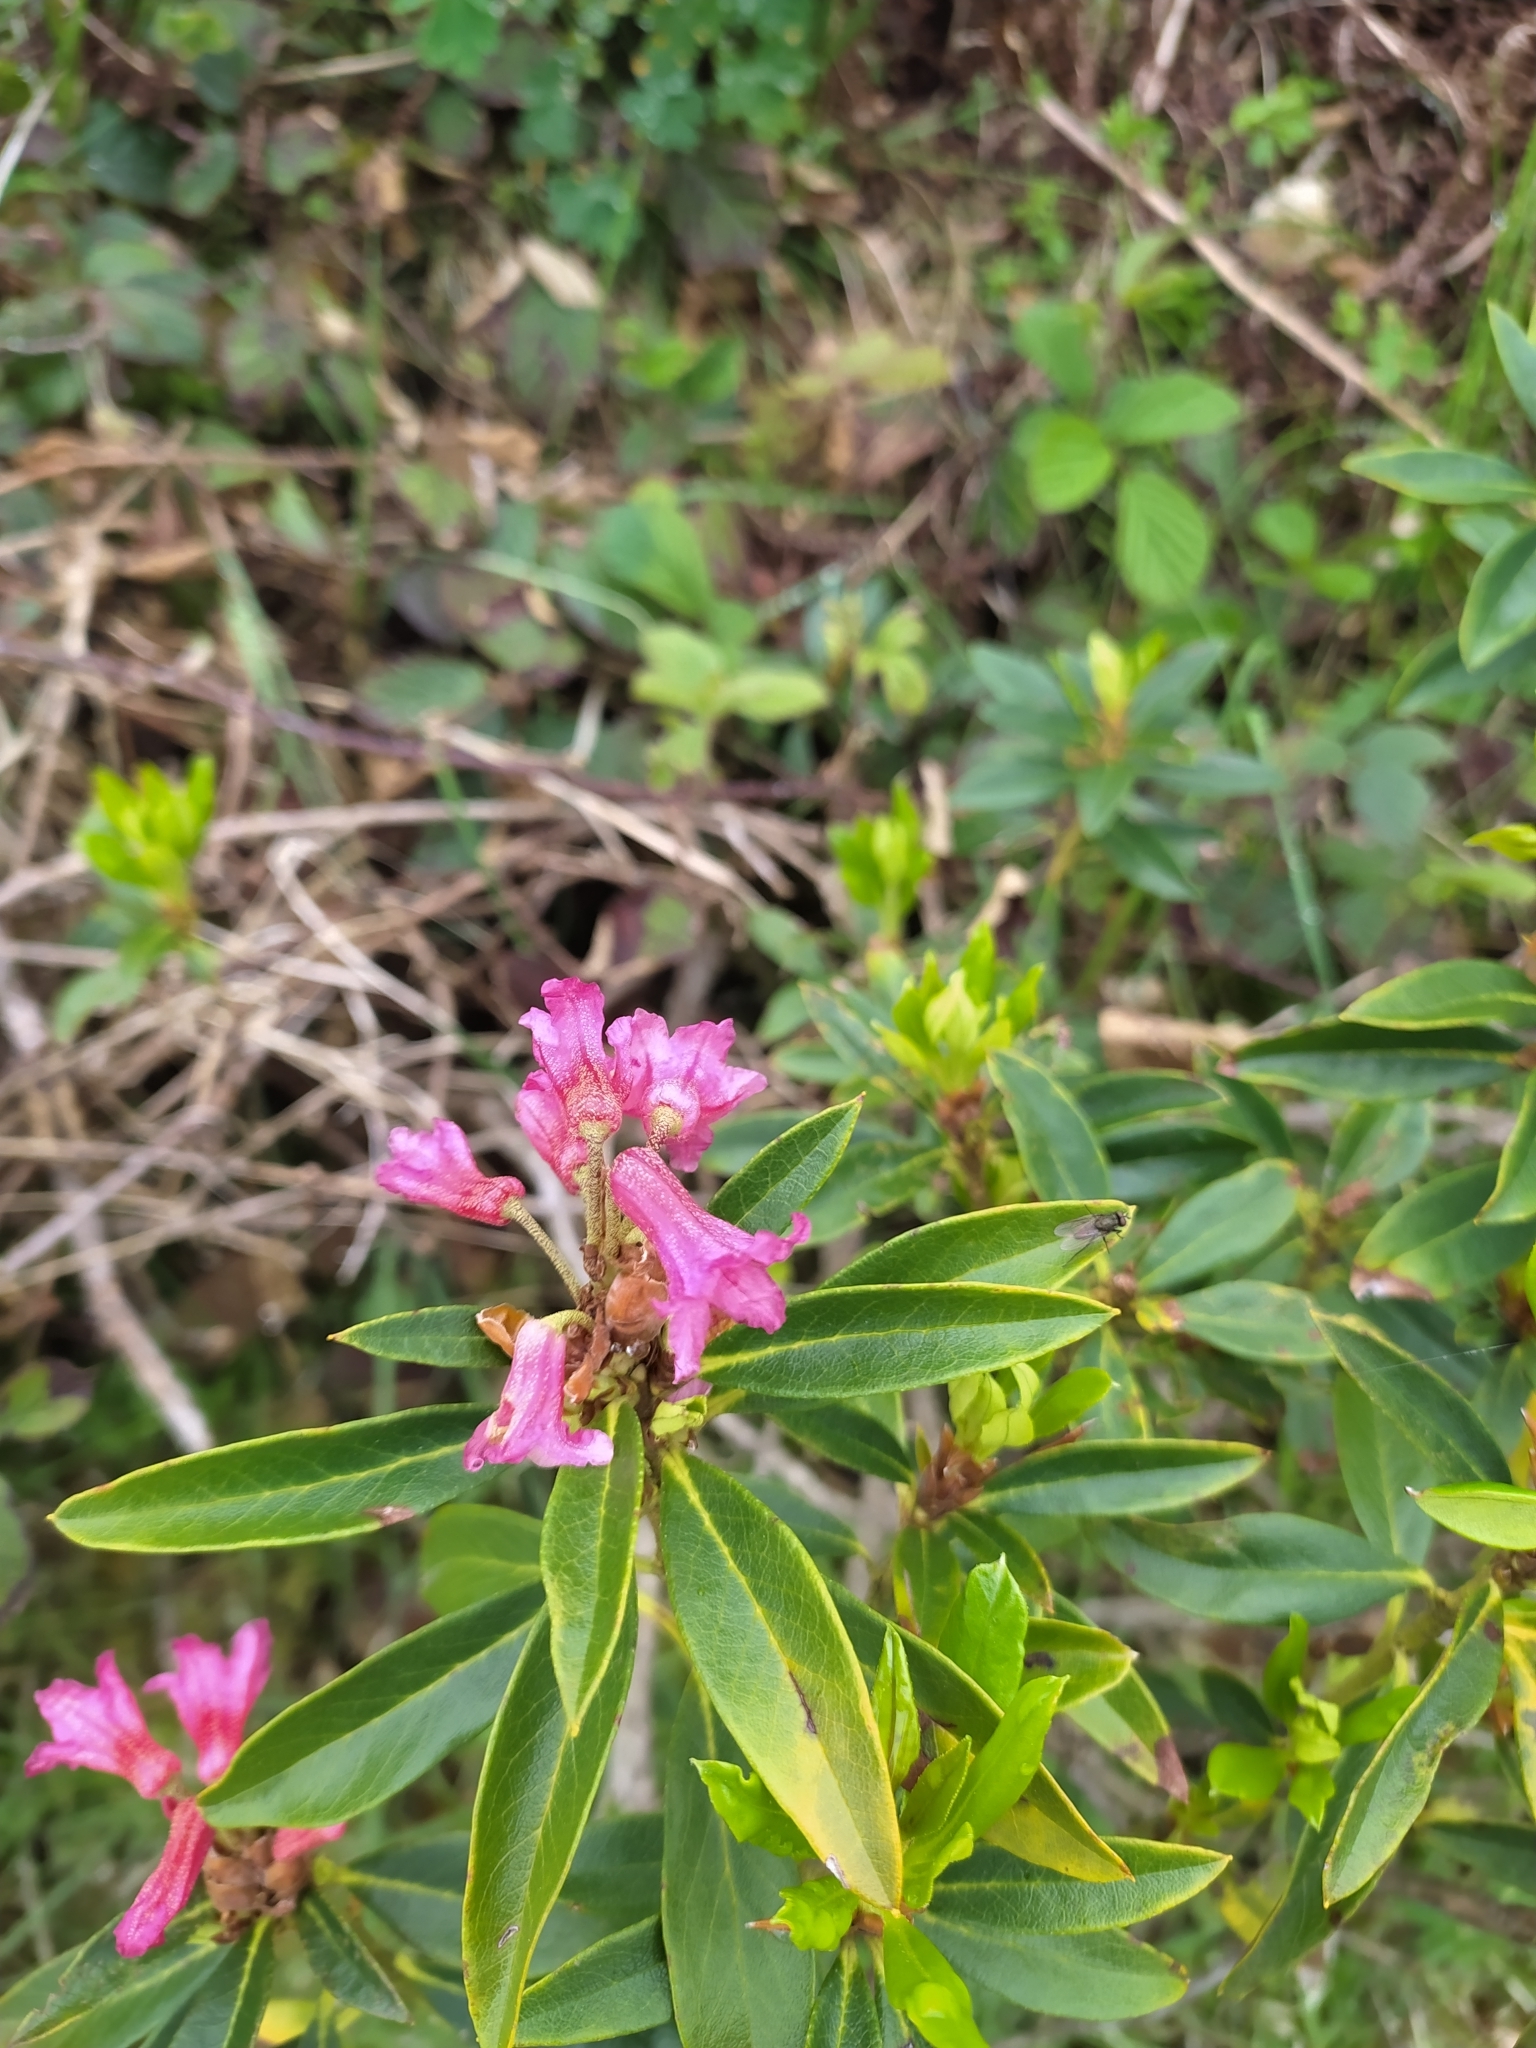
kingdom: Plantae
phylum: Tracheophyta
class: Magnoliopsida
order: Ericales
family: Ericaceae
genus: Rhododendron
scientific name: Rhododendron ferrugineum
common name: Alpenrose
